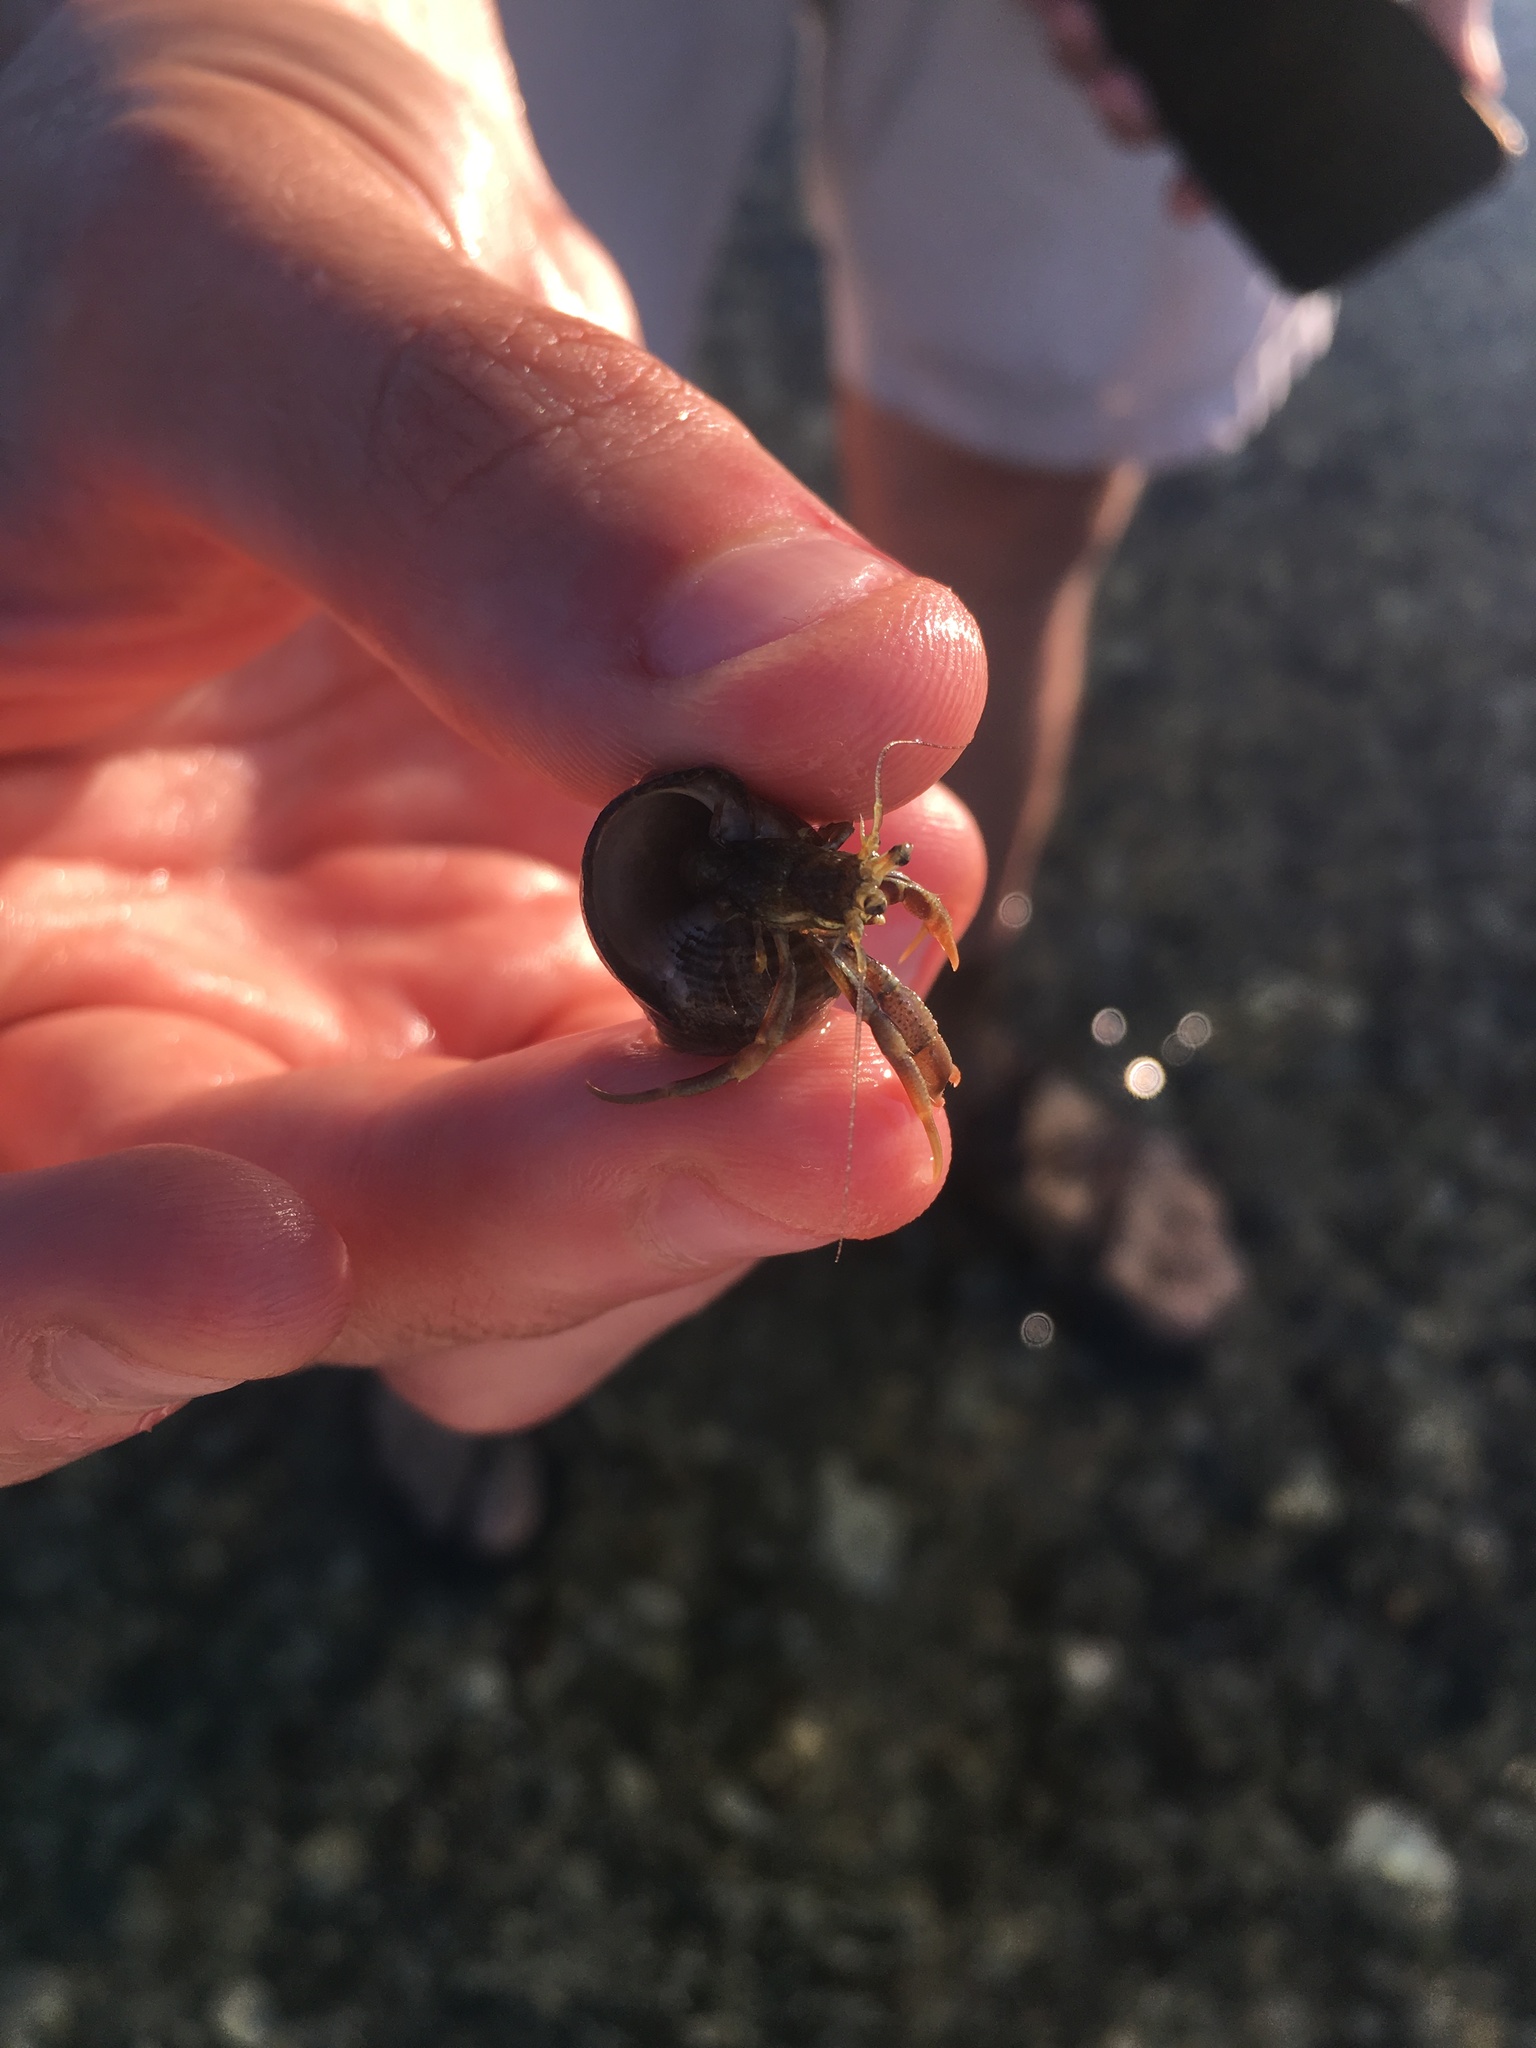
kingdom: Animalia
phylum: Arthropoda
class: Malacostraca
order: Decapoda
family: Paguridae
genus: Pagurus
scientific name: Pagurus longicarpus
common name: Long-armed hermit crab
